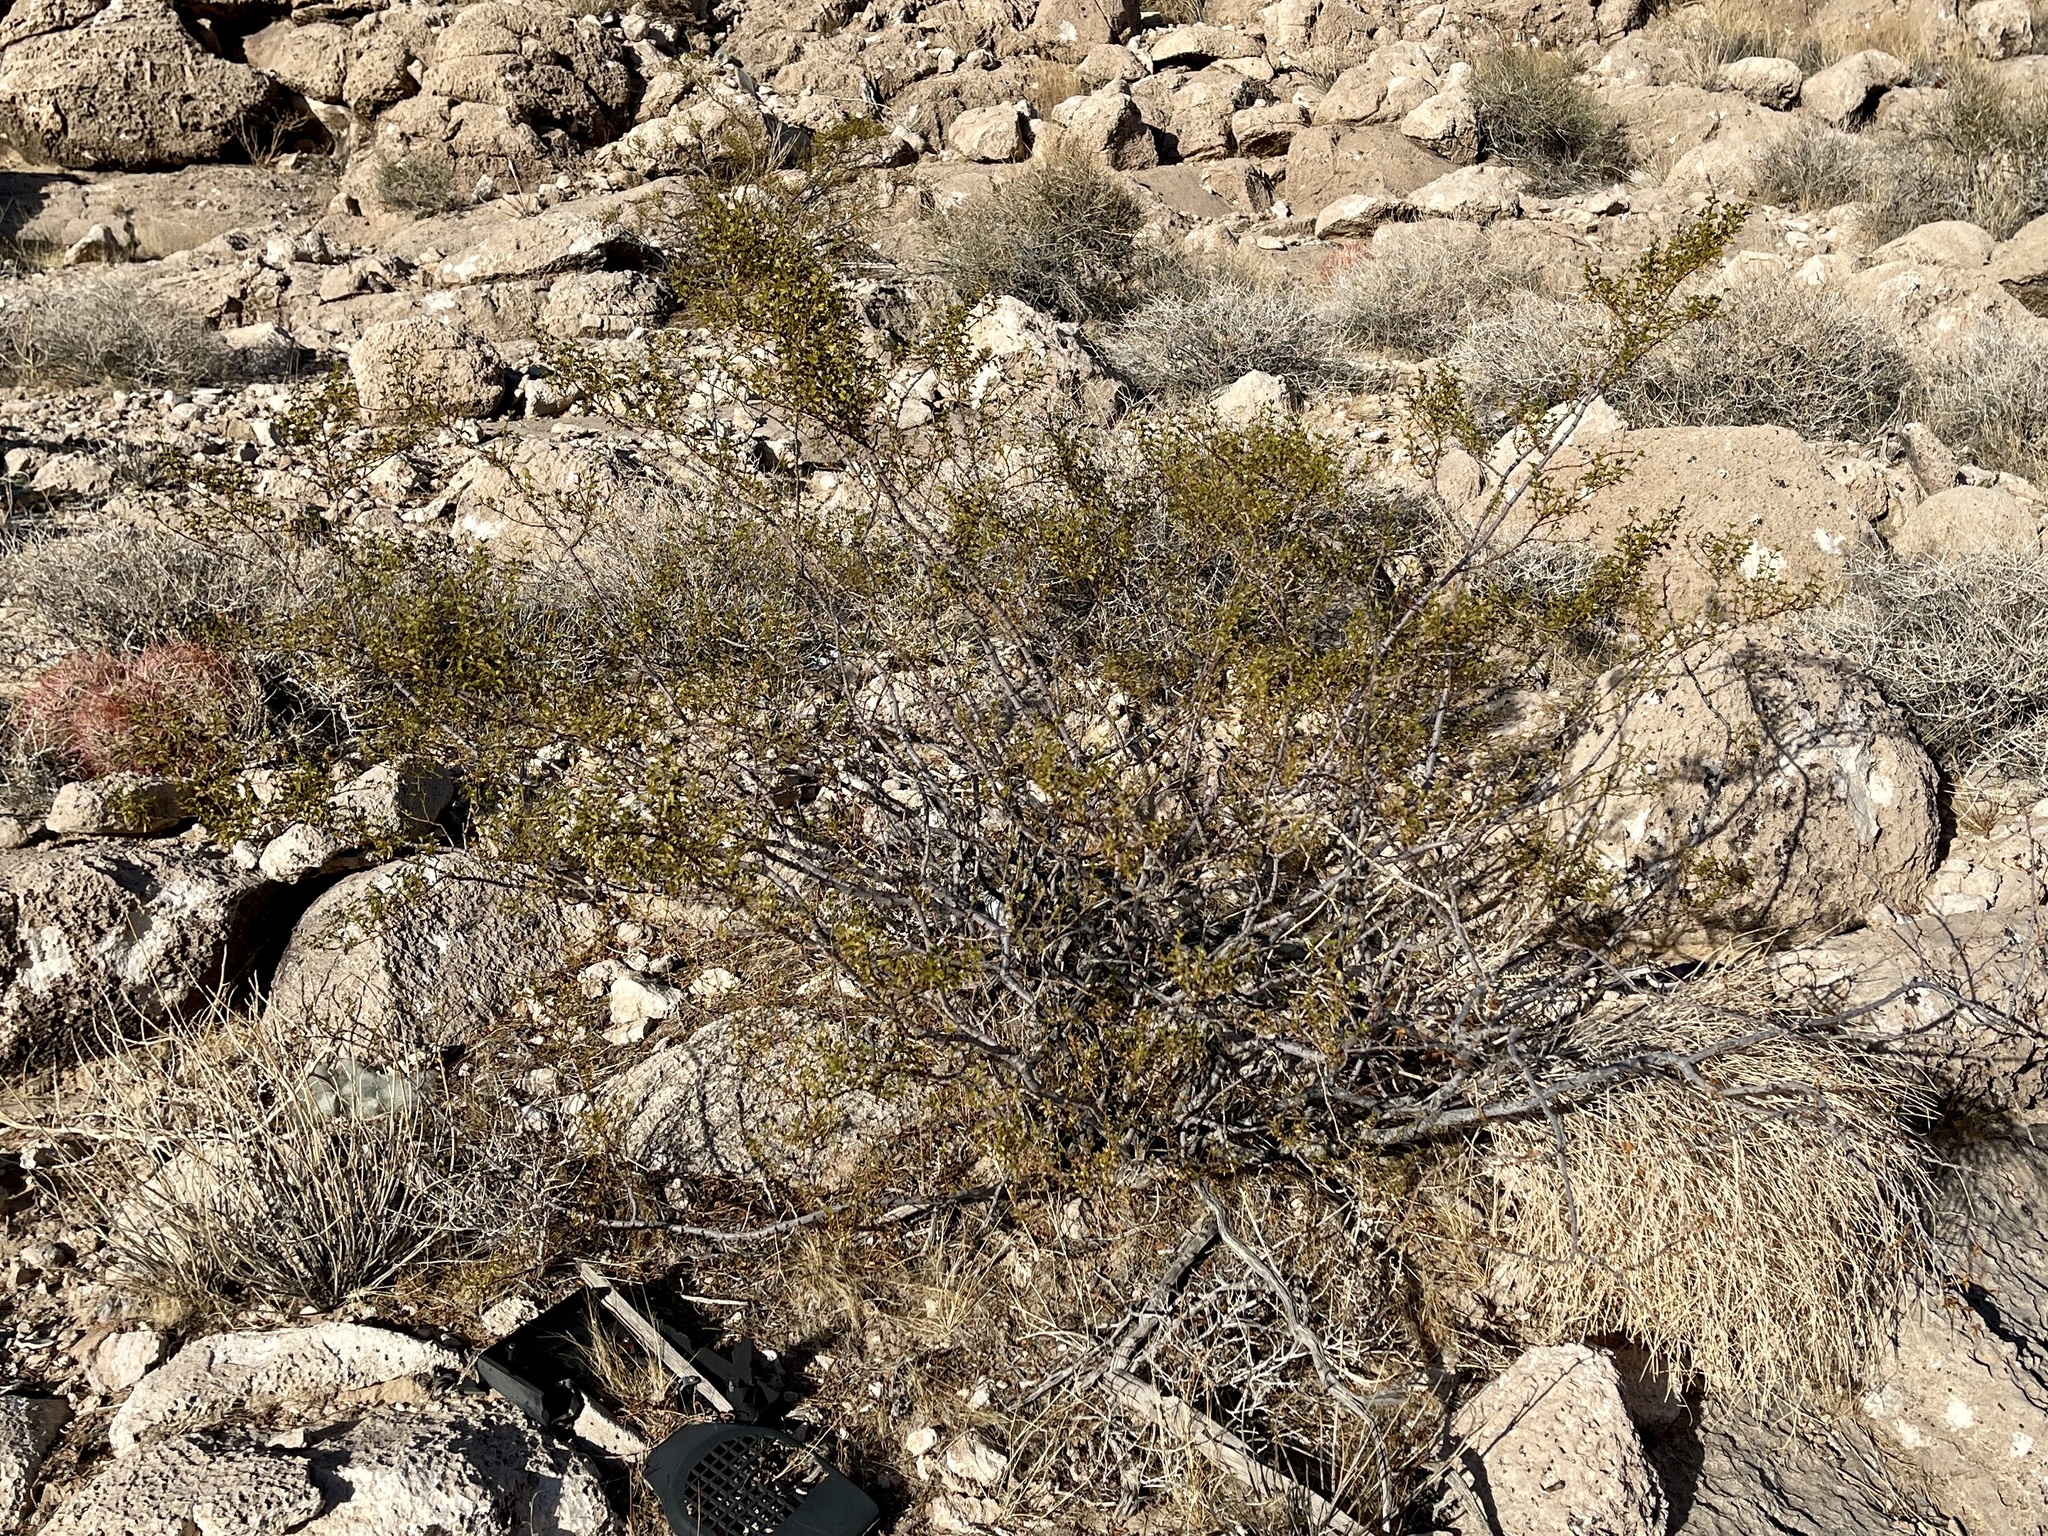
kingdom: Plantae
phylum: Tracheophyta
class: Magnoliopsida
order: Zygophyllales
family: Zygophyllaceae
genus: Larrea
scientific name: Larrea tridentata
